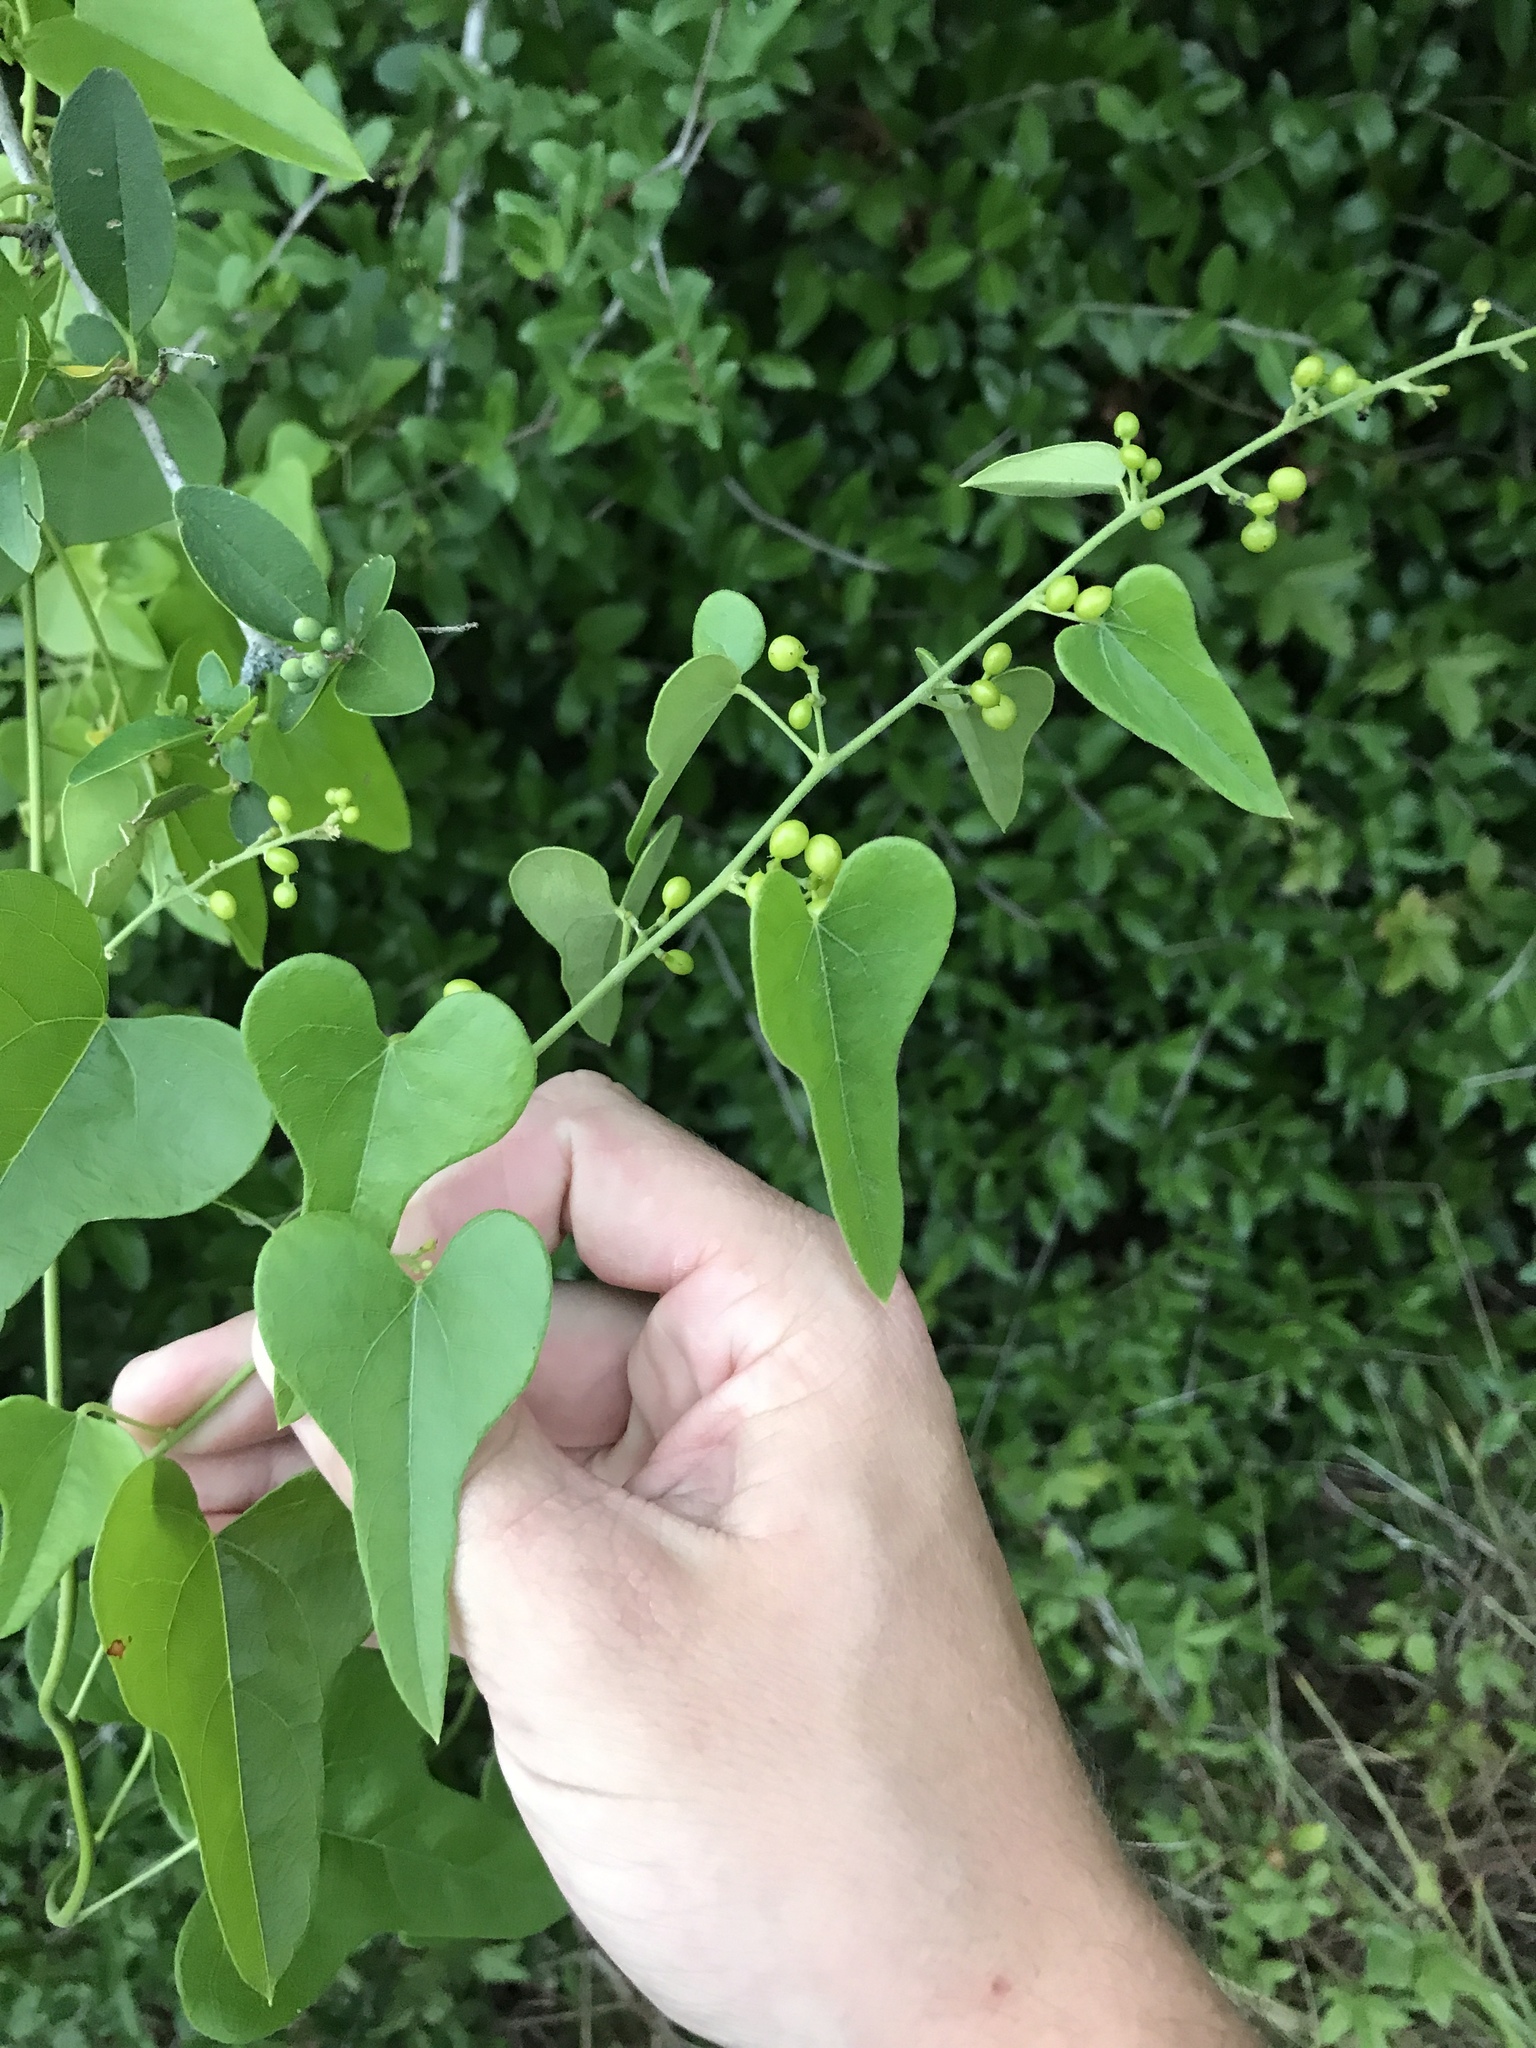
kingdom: Plantae
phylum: Tracheophyta
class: Magnoliopsida
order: Ranunculales
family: Menispermaceae
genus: Cocculus
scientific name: Cocculus carolinus
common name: Carolina moonseed
